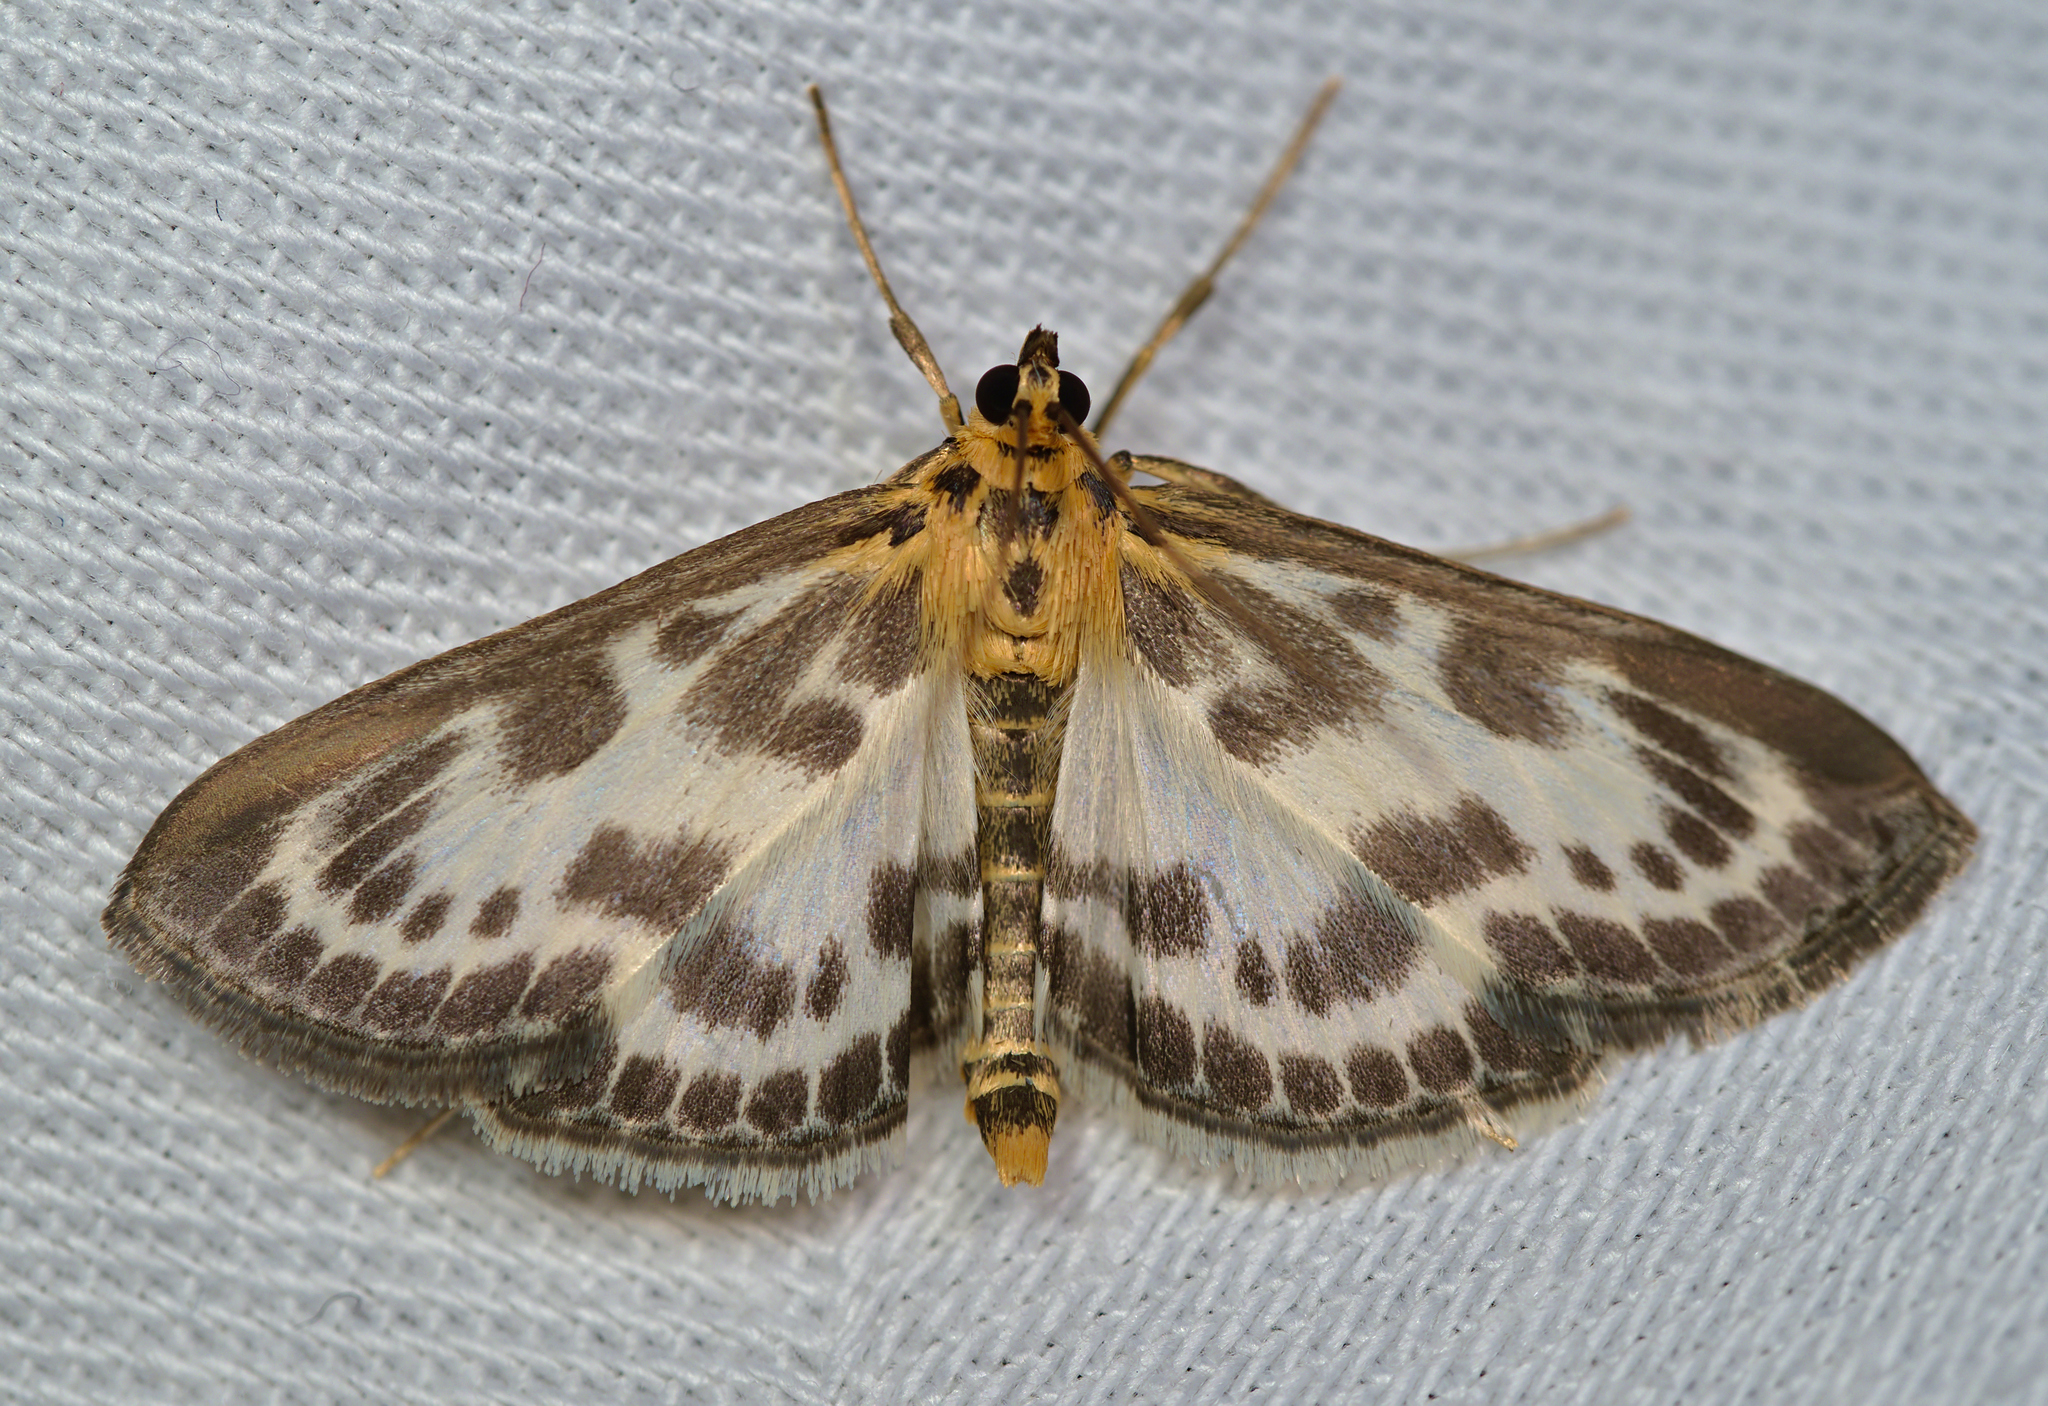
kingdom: Animalia
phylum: Arthropoda
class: Insecta
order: Lepidoptera
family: Crambidae
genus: Anania
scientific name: Anania hortulata
